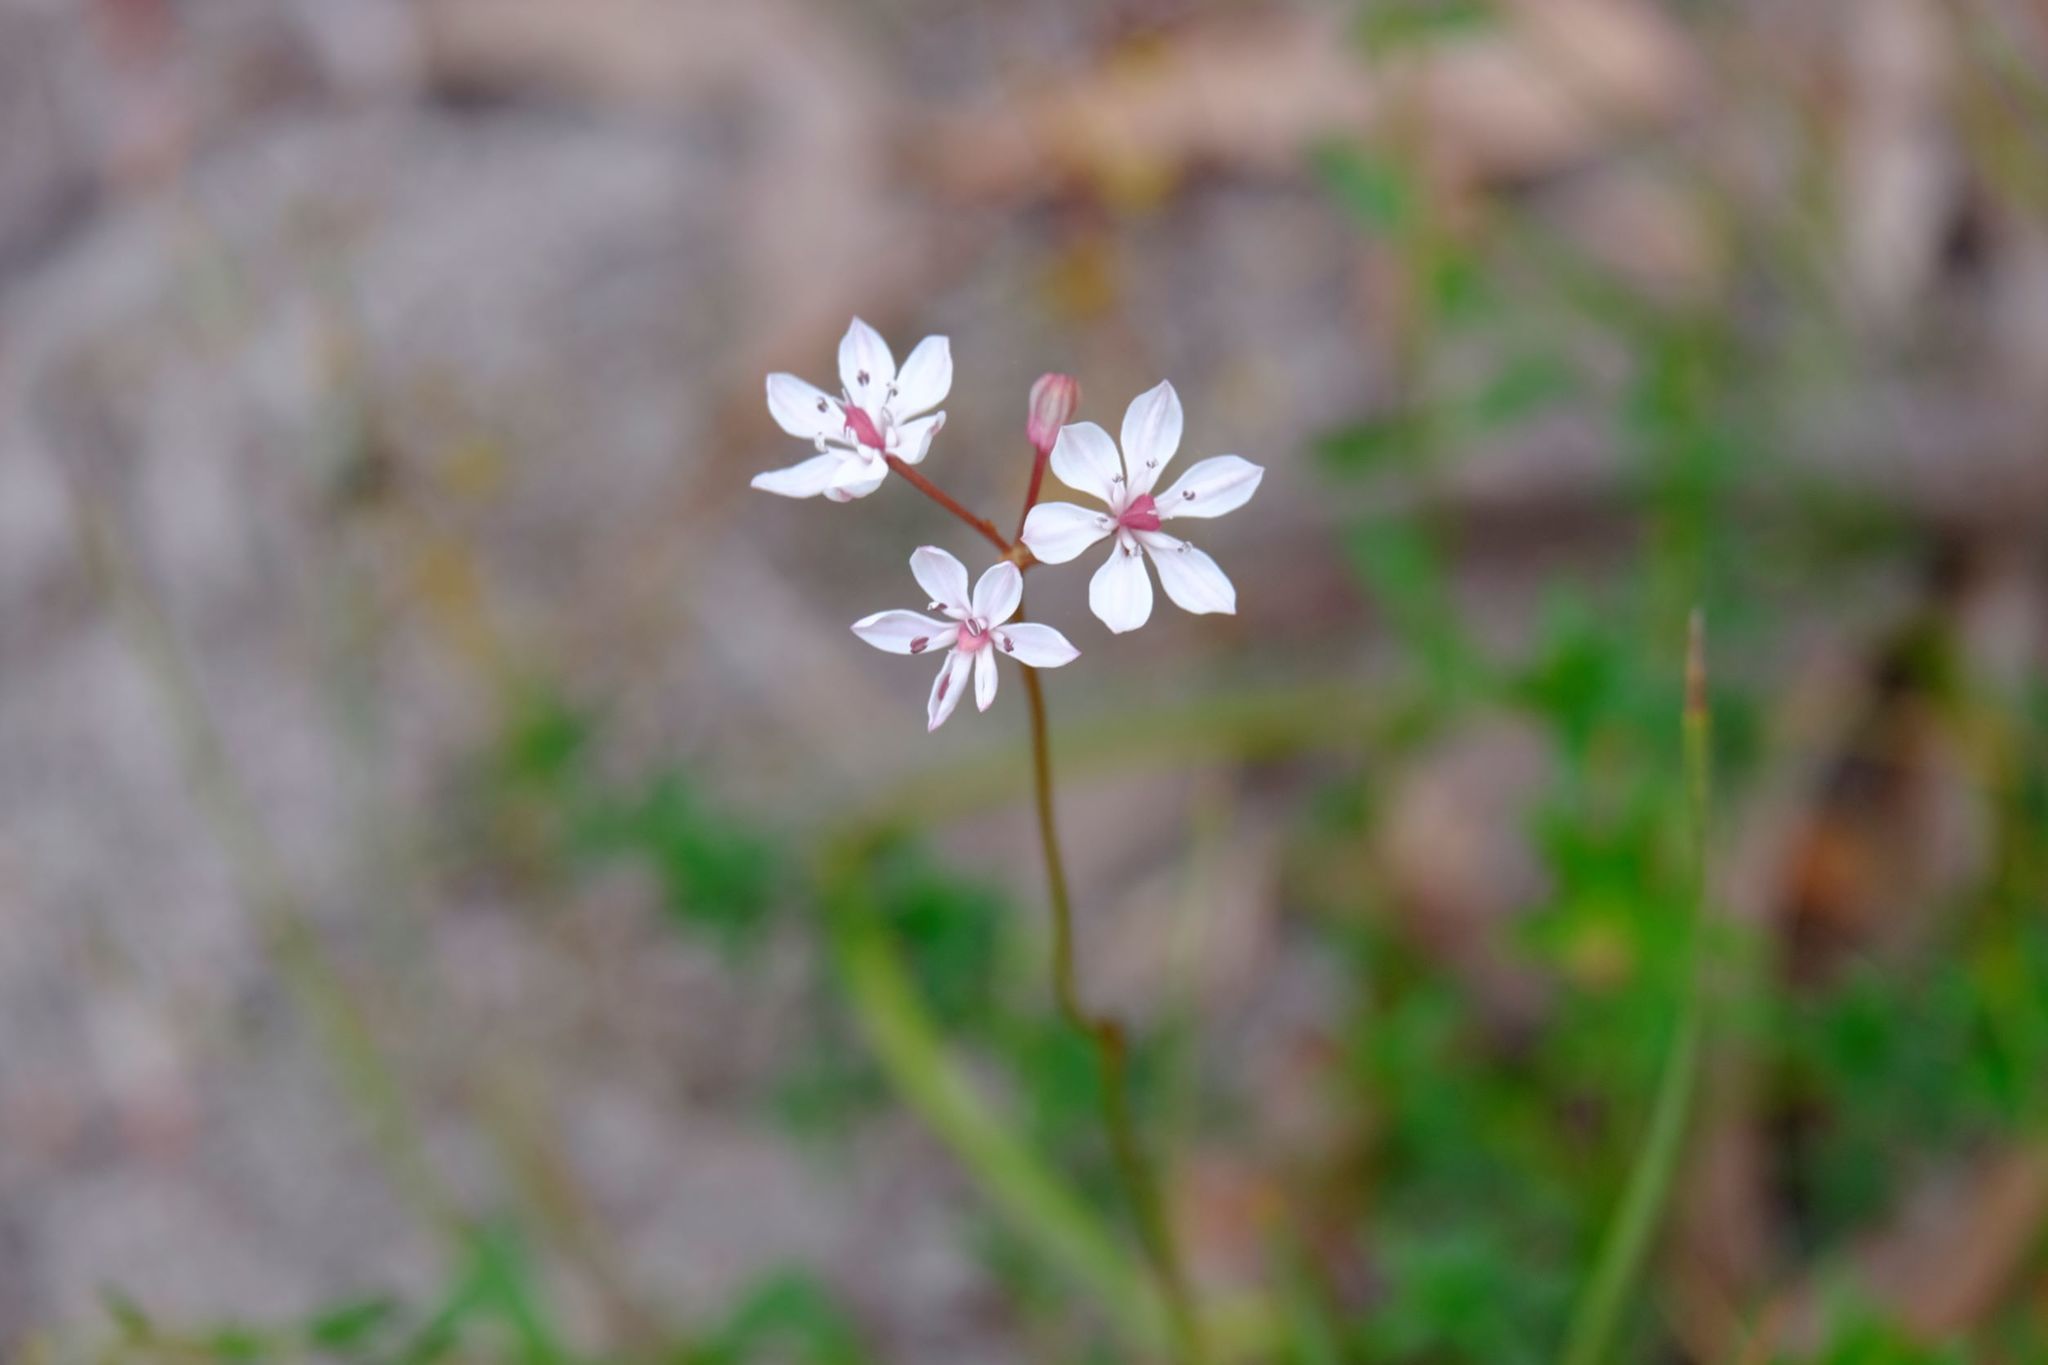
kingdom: Plantae
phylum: Tracheophyta
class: Liliopsida
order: Liliales
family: Colchicaceae
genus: Burchardia
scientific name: Burchardia umbellata
